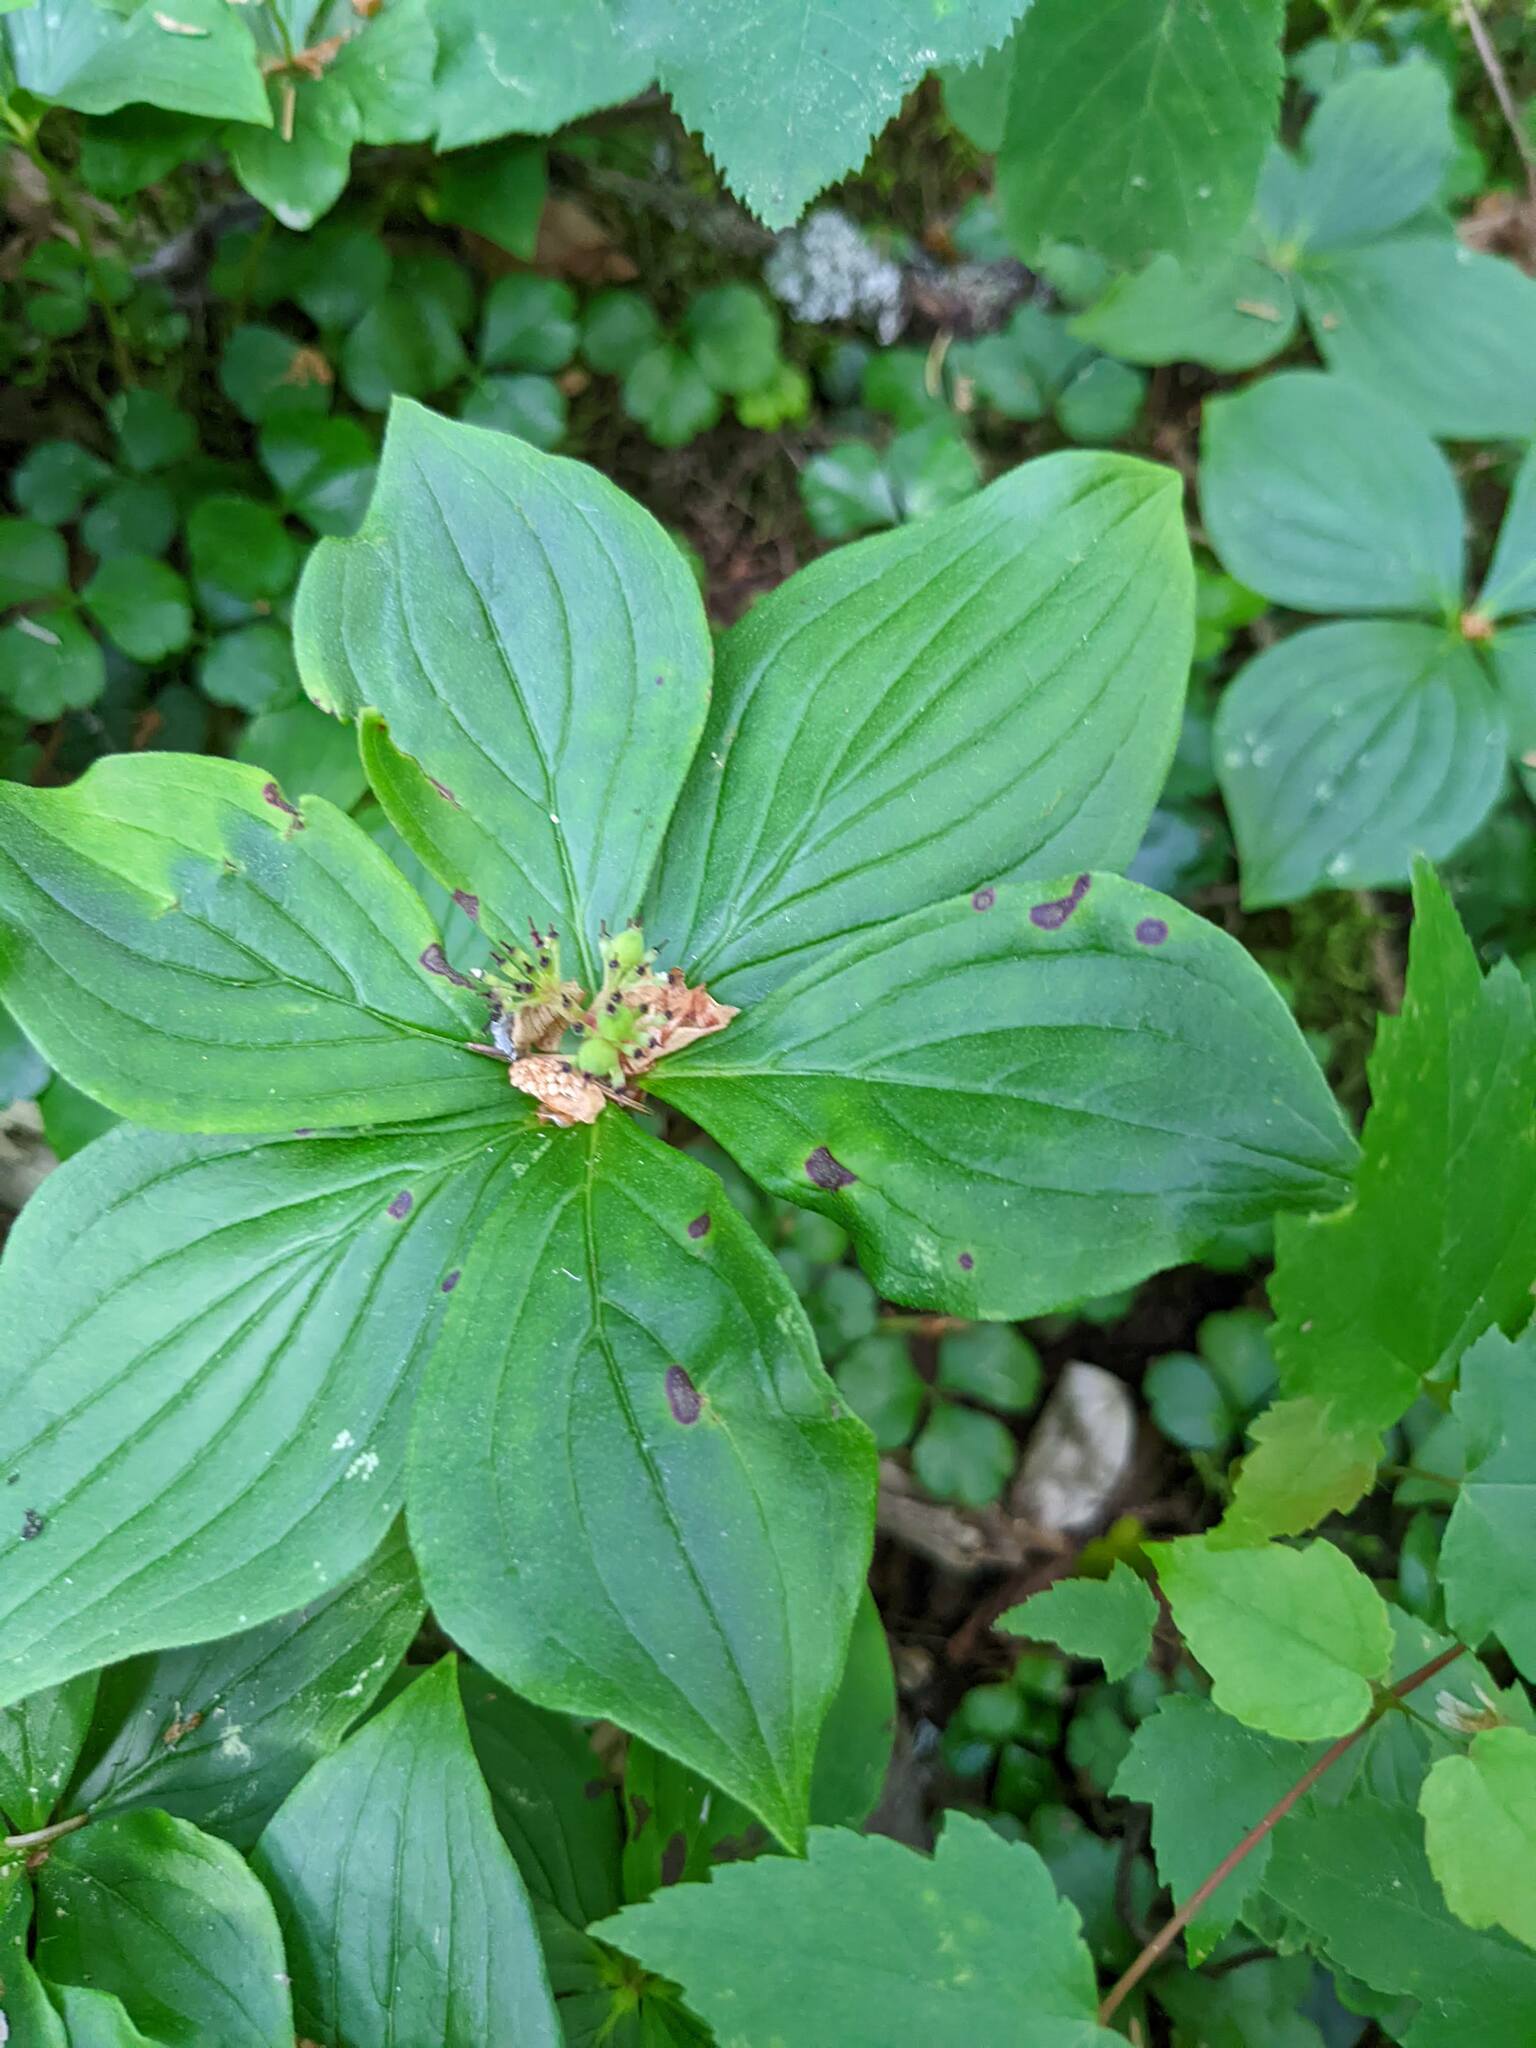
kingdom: Plantae
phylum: Tracheophyta
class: Magnoliopsida
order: Cornales
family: Cornaceae
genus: Cornus
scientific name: Cornus canadensis
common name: Creeping dogwood
